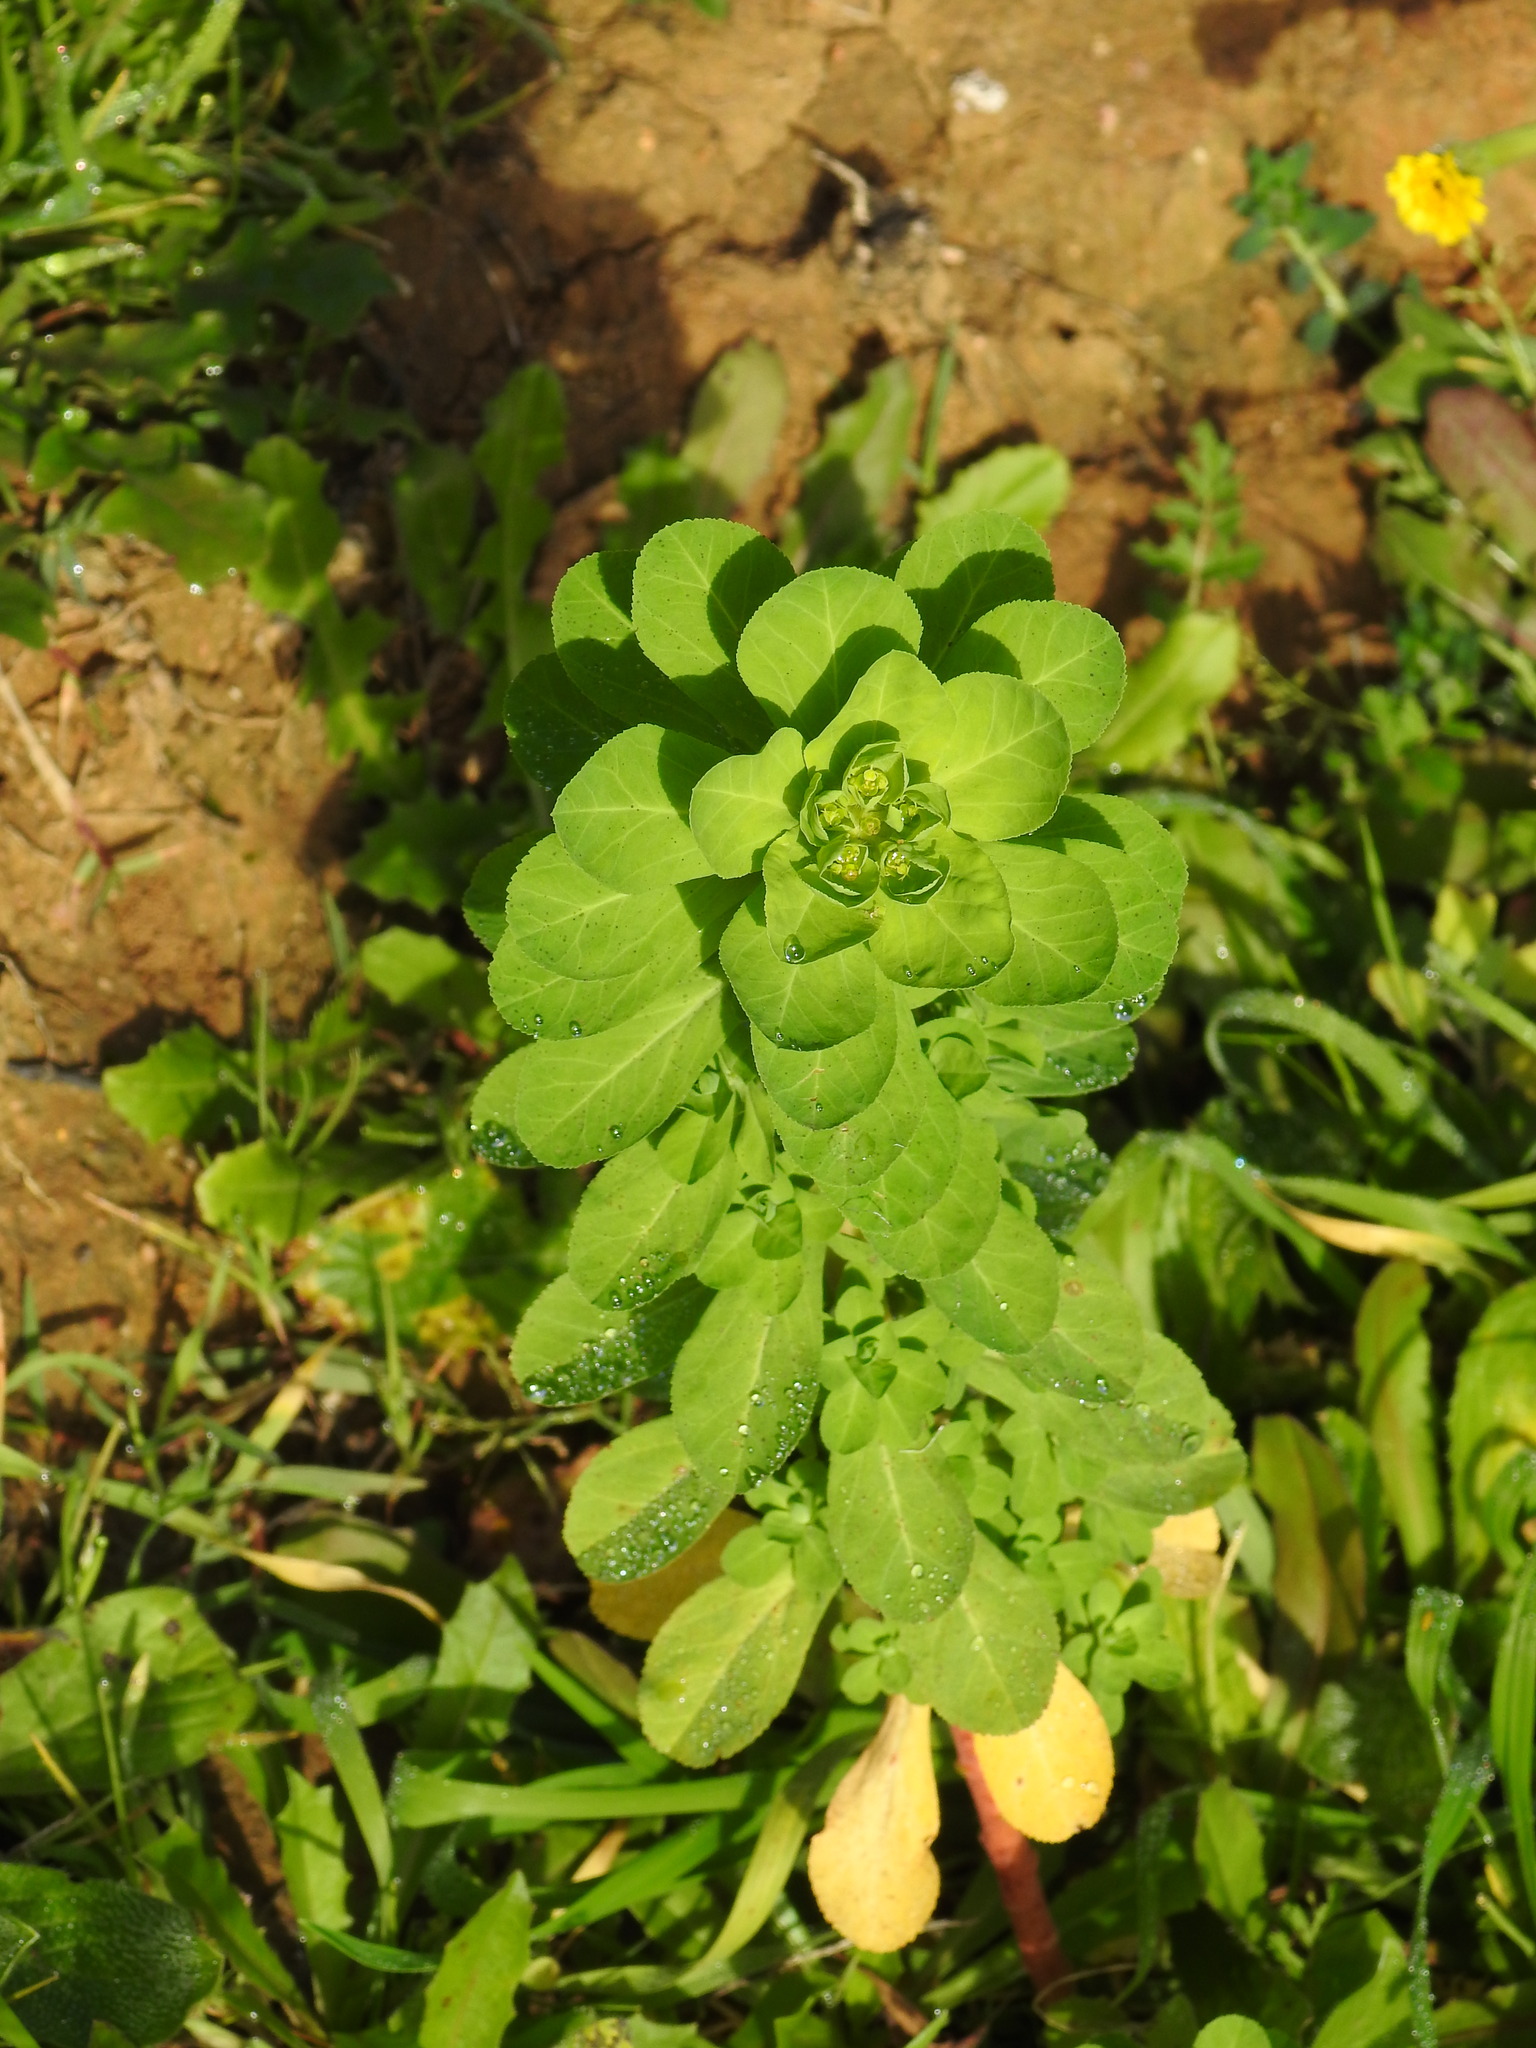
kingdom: Plantae
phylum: Tracheophyta
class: Magnoliopsida
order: Malpighiales
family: Euphorbiaceae
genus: Euphorbia
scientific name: Euphorbia helioscopia
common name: Sun spurge
